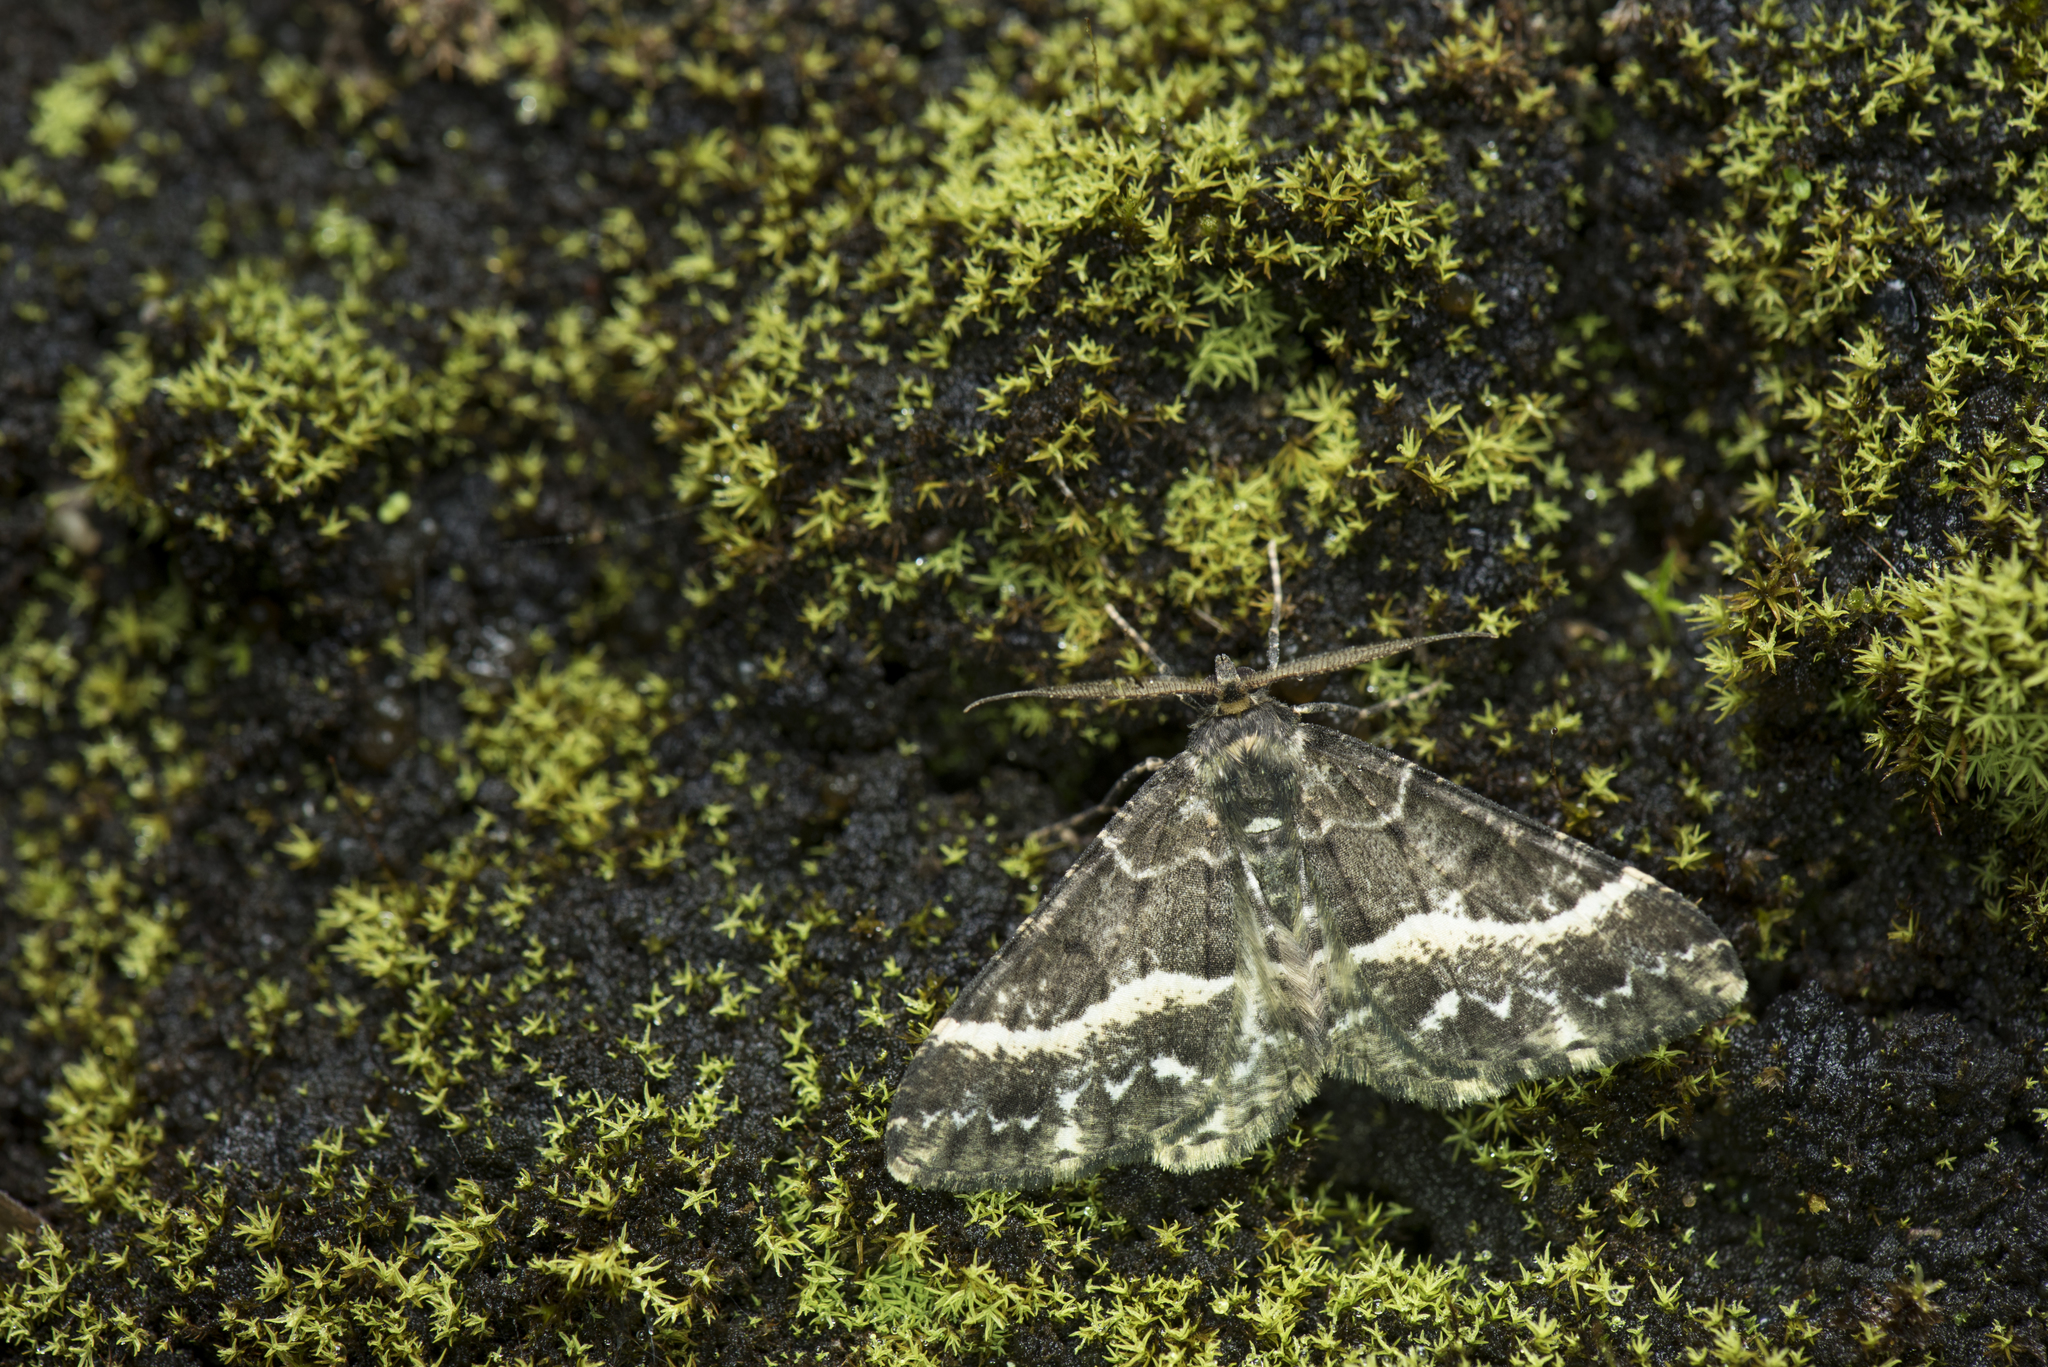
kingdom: Animalia
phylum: Arthropoda
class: Insecta
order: Lepidoptera
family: Geometridae
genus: Arichanna
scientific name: Arichanna fumigata
